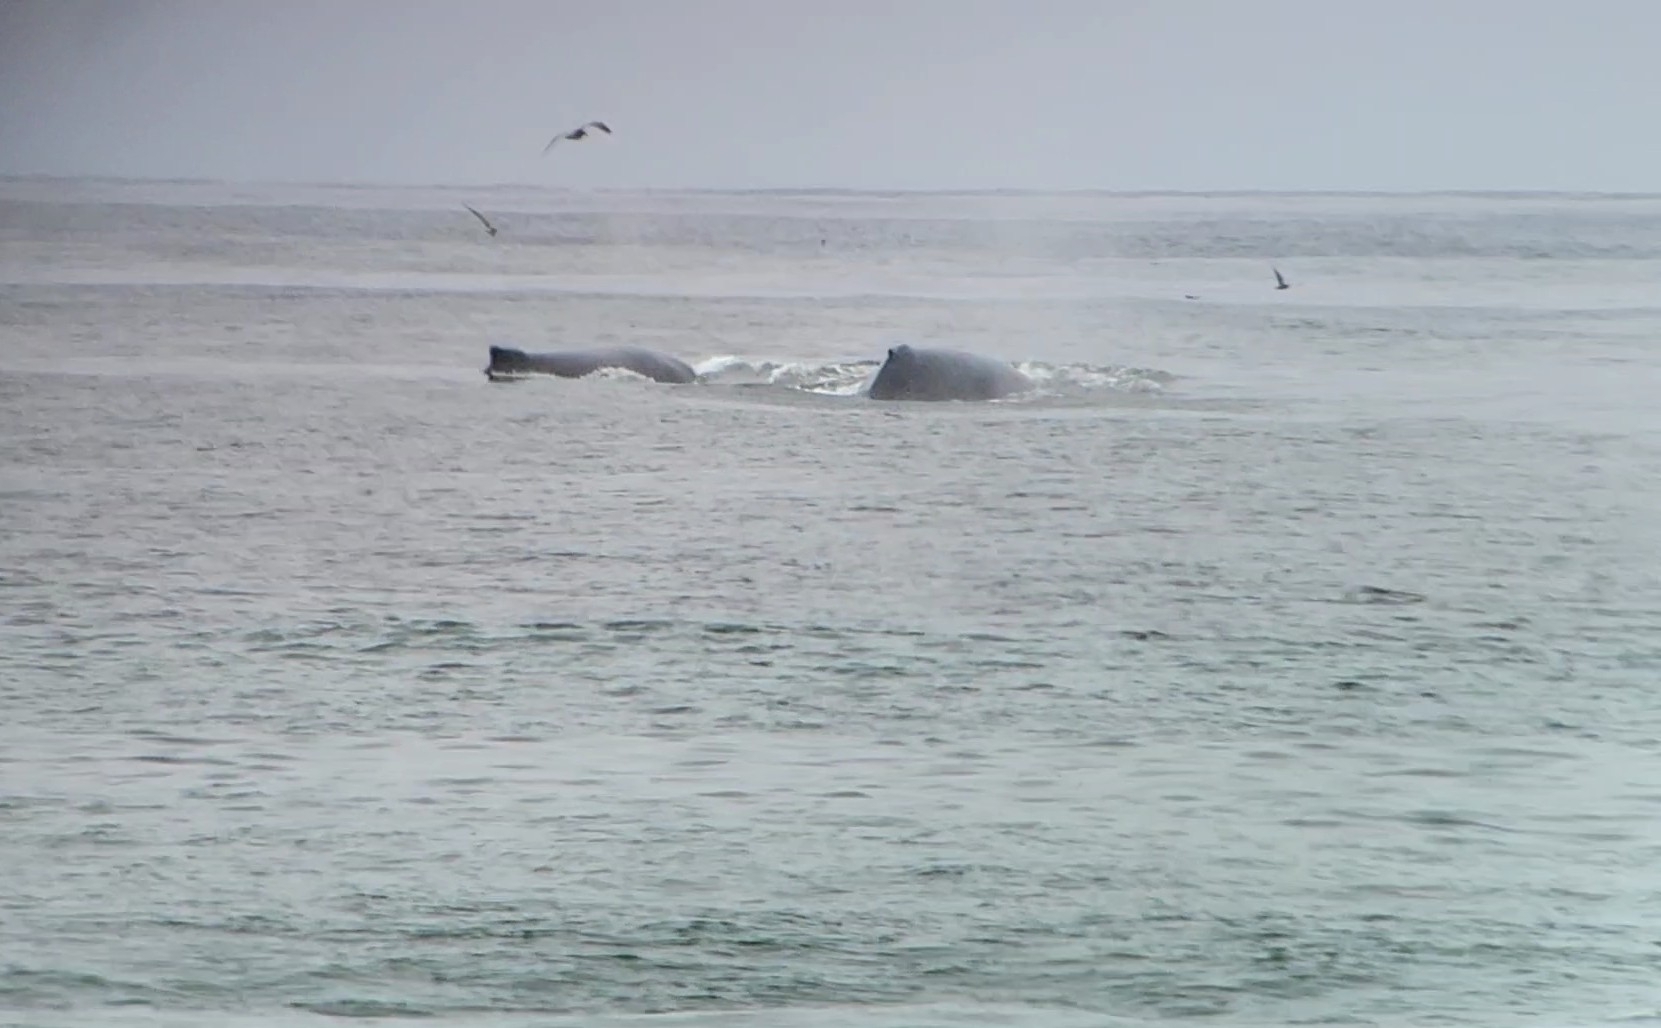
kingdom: Animalia
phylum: Chordata
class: Mammalia
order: Cetacea
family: Balaenopteridae
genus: Megaptera
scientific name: Megaptera novaeangliae
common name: Humpback whale
